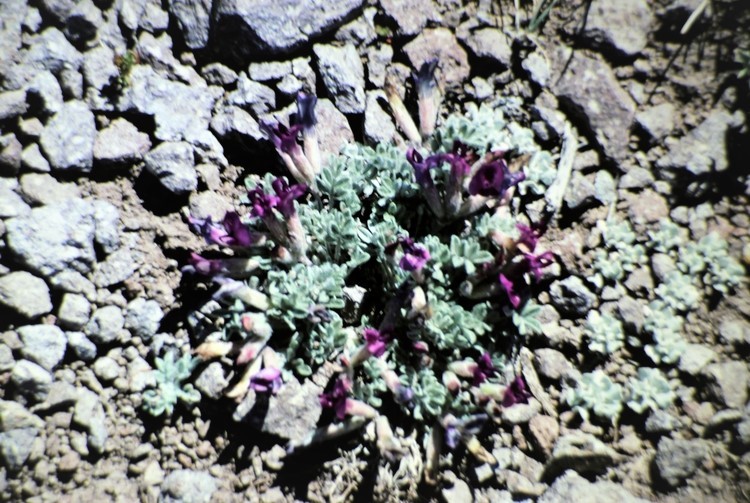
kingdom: Plantae
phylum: Tracheophyta
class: Magnoliopsida
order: Fabales
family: Fabaceae
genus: Astragalus
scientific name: Astragalus purshii
